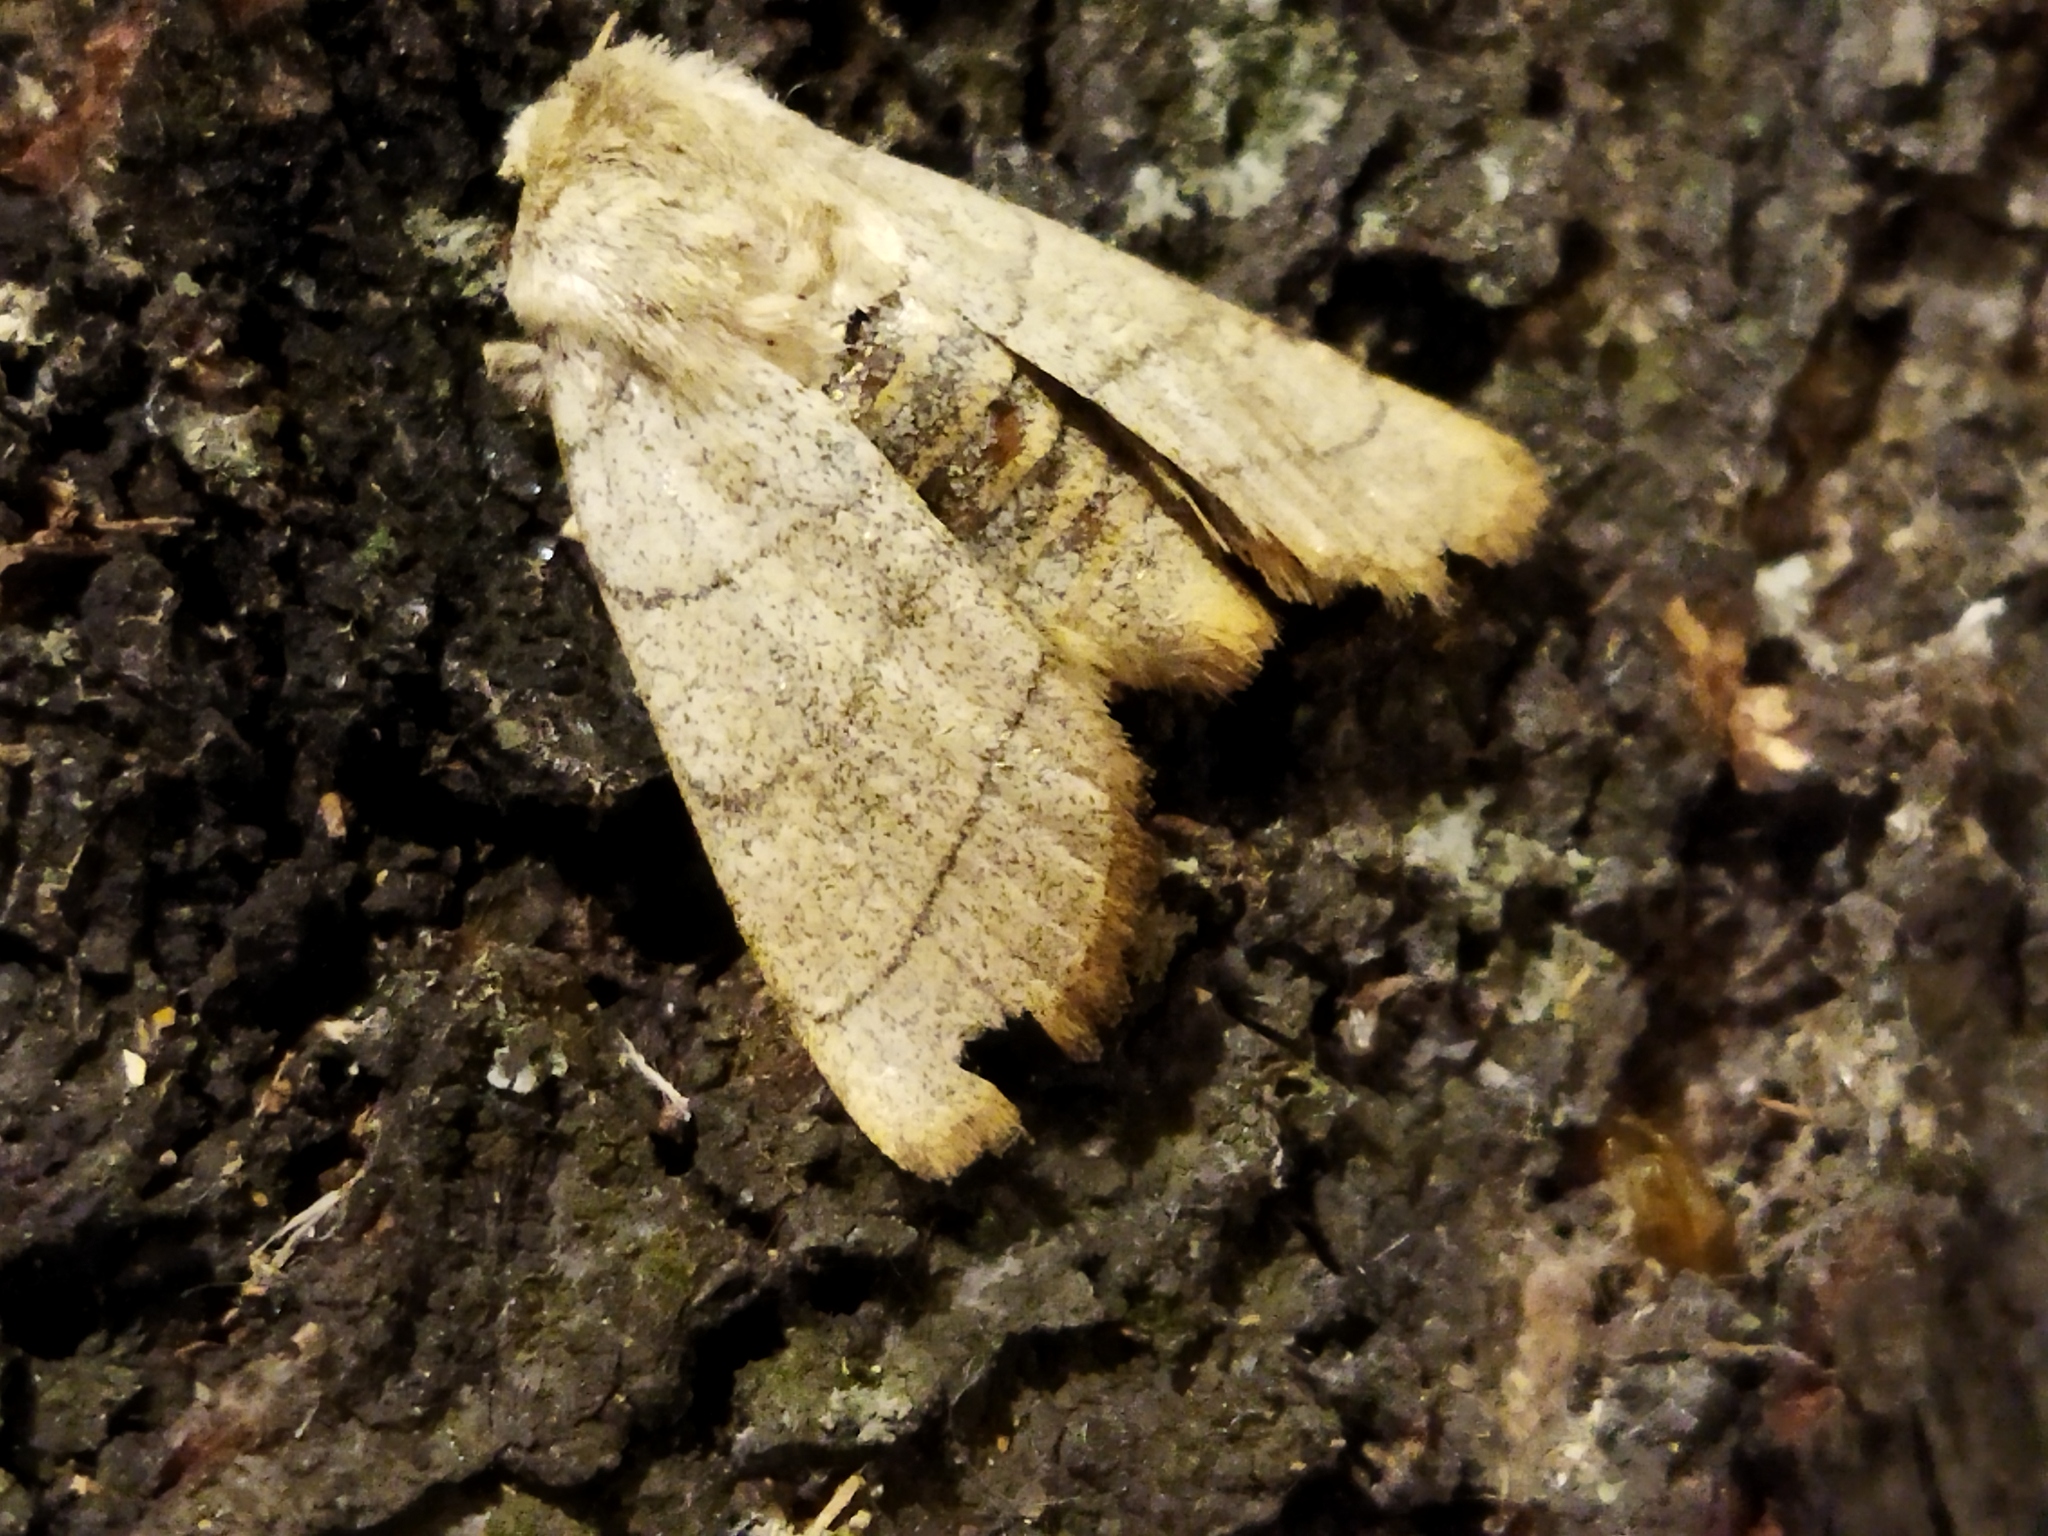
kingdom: Animalia
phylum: Arthropoda
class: Insecta
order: Lepidoptera
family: Noctuidae
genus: Charanyca
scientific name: Charanyca trigrammica
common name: Treble lines
